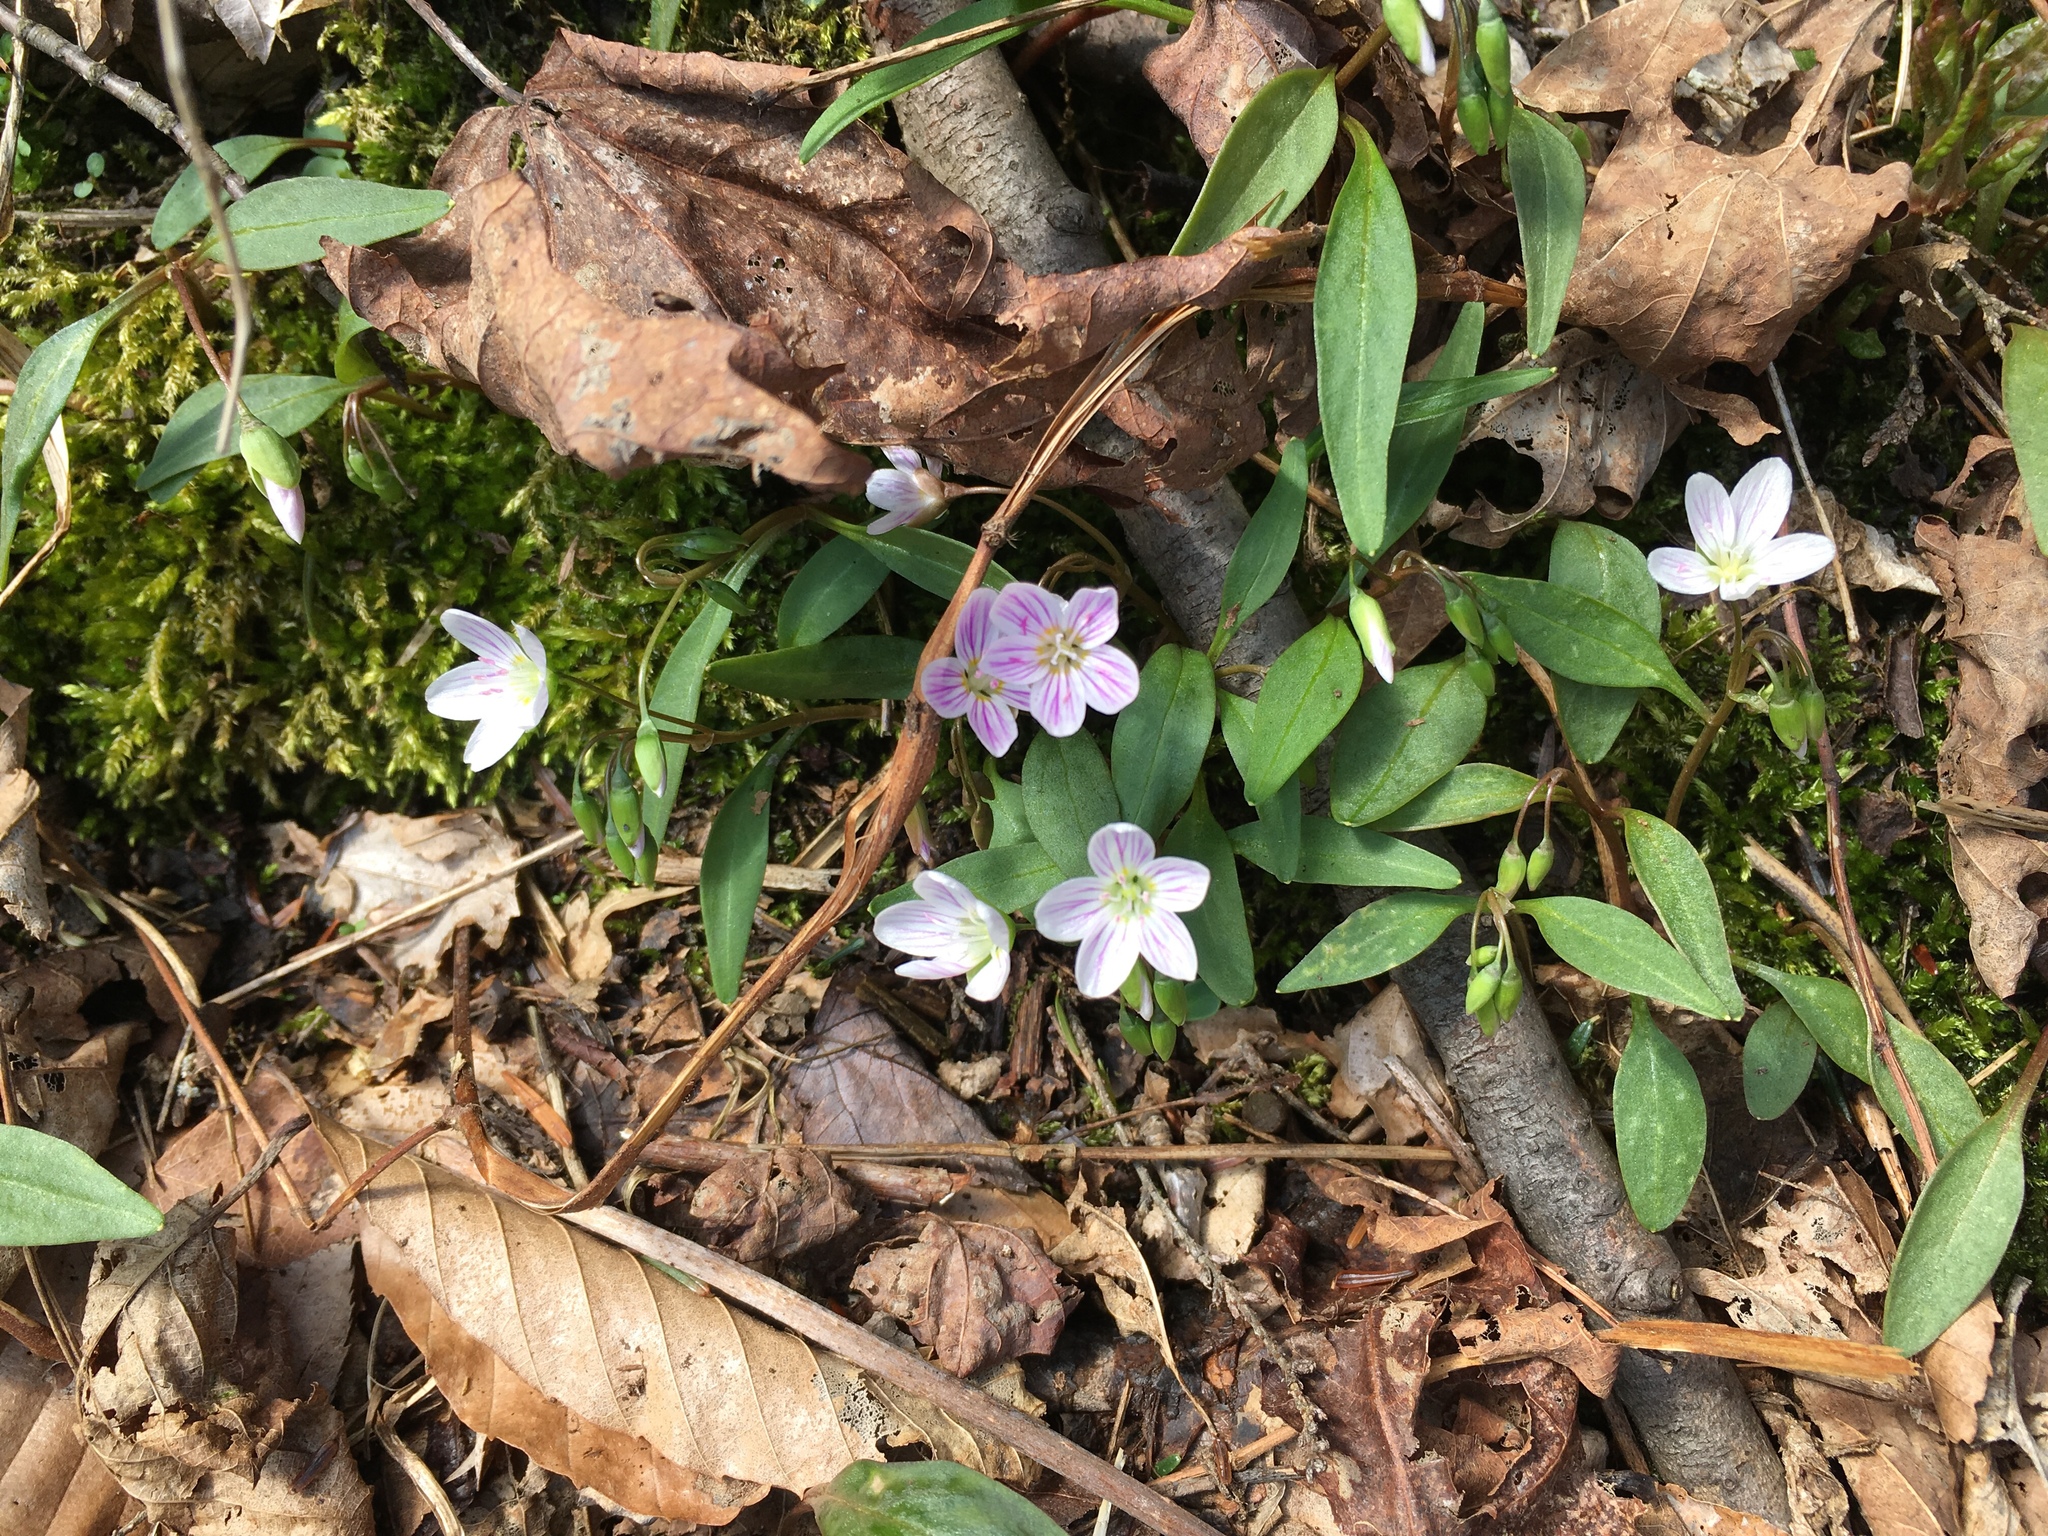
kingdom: Plantae
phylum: Tracheophyta
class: Magnoliopsida
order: Caryophyllales
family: Montiaceae
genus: Claytonia
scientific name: Claytonia caroliniana
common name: Carolina spring beauty
